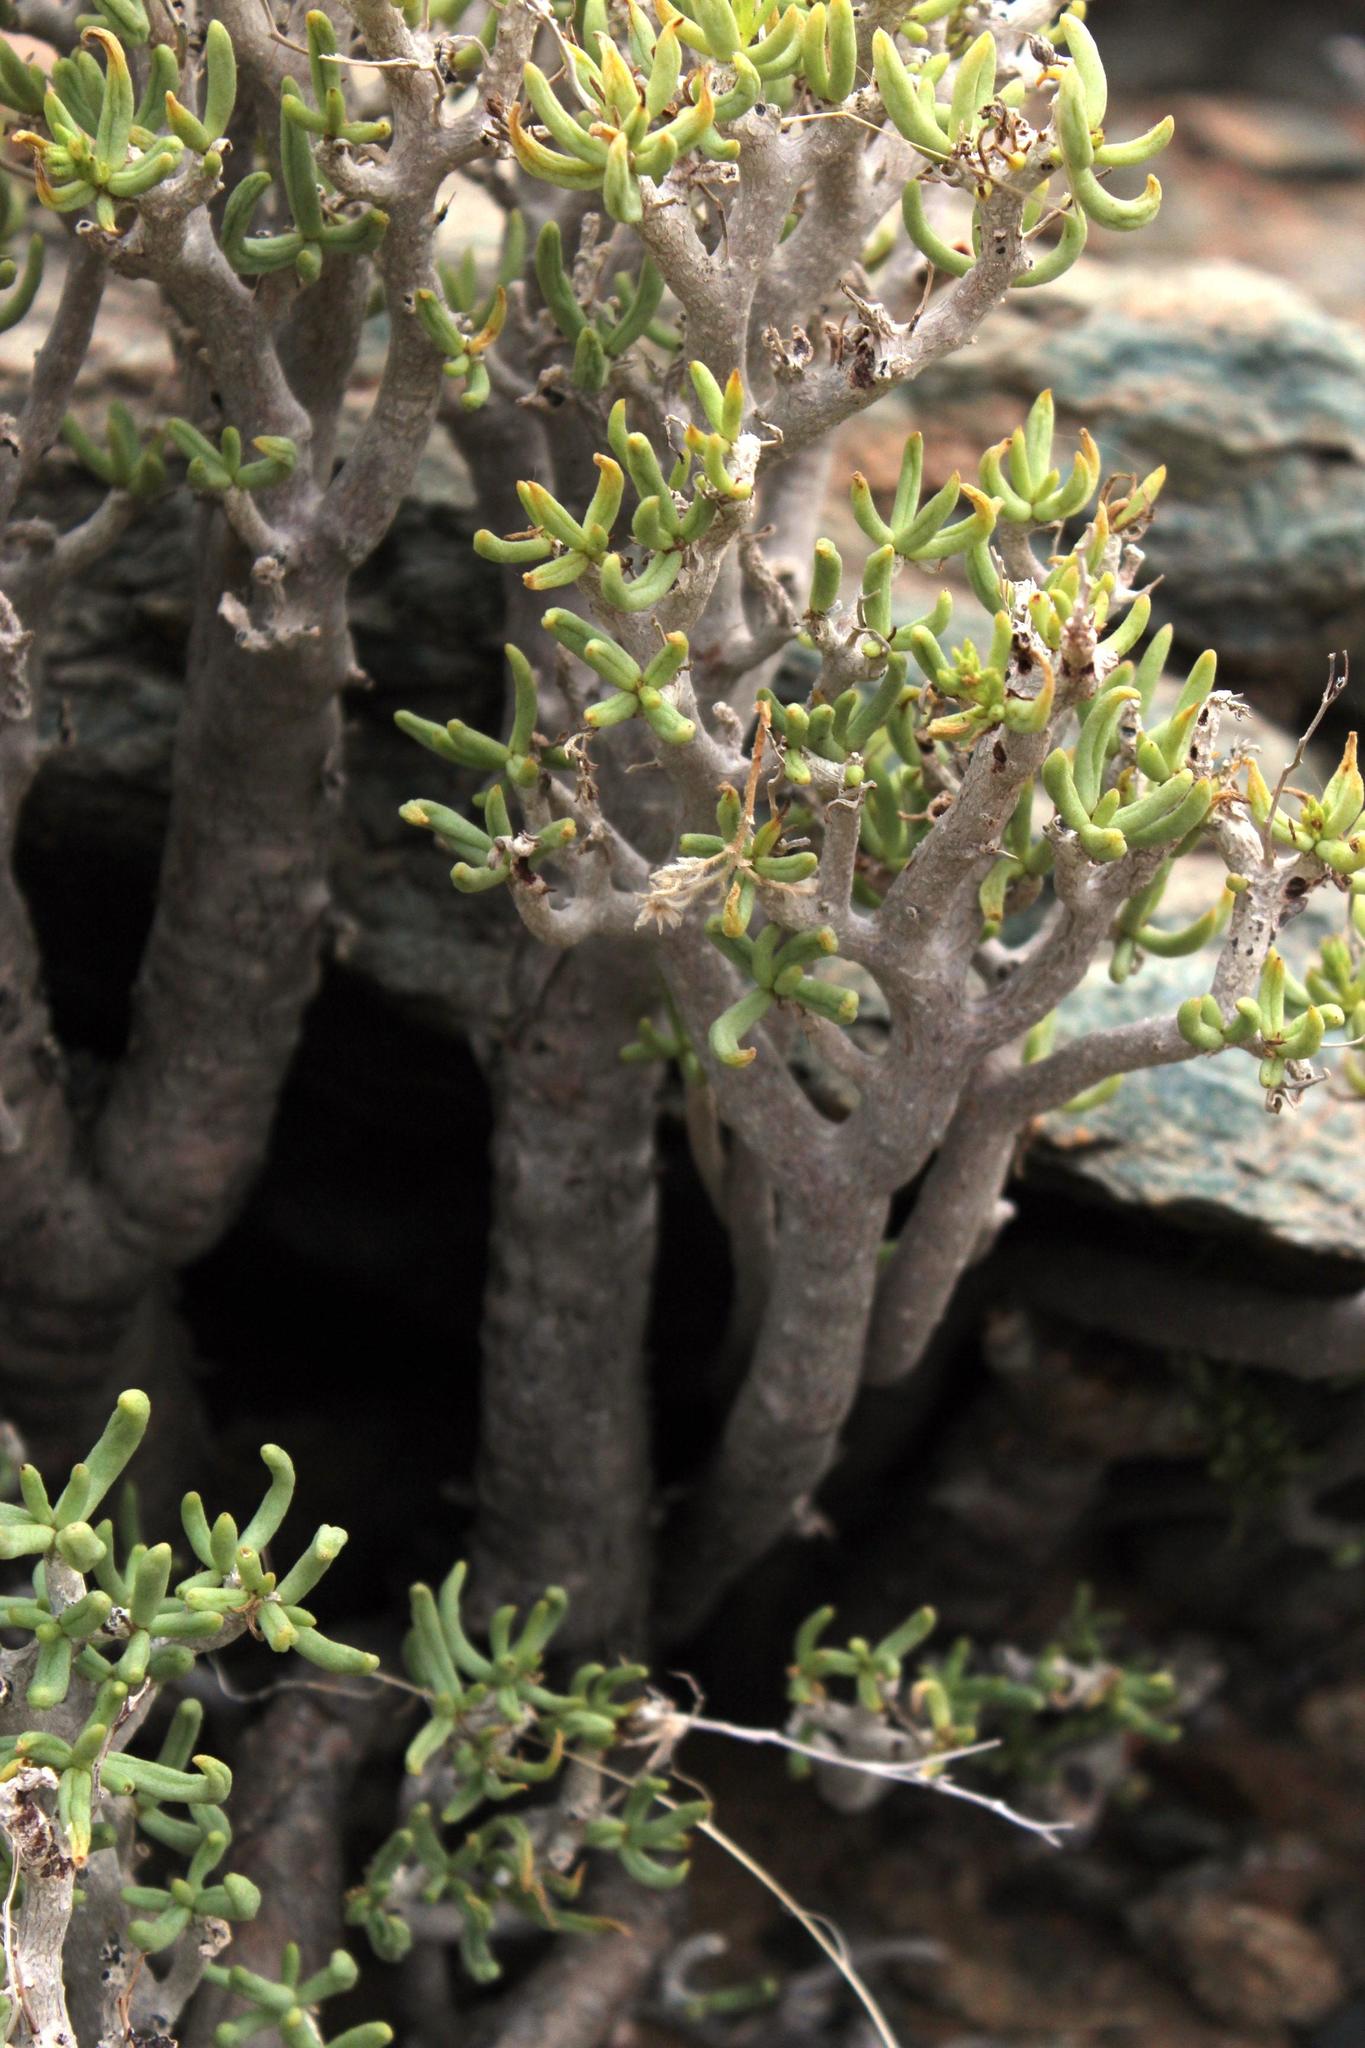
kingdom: Plantae
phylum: Tracheophyta
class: Magnoliopsida
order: Saxifragales
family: Crassulaceae
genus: Tylecodon
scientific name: Tylecodon hallii
